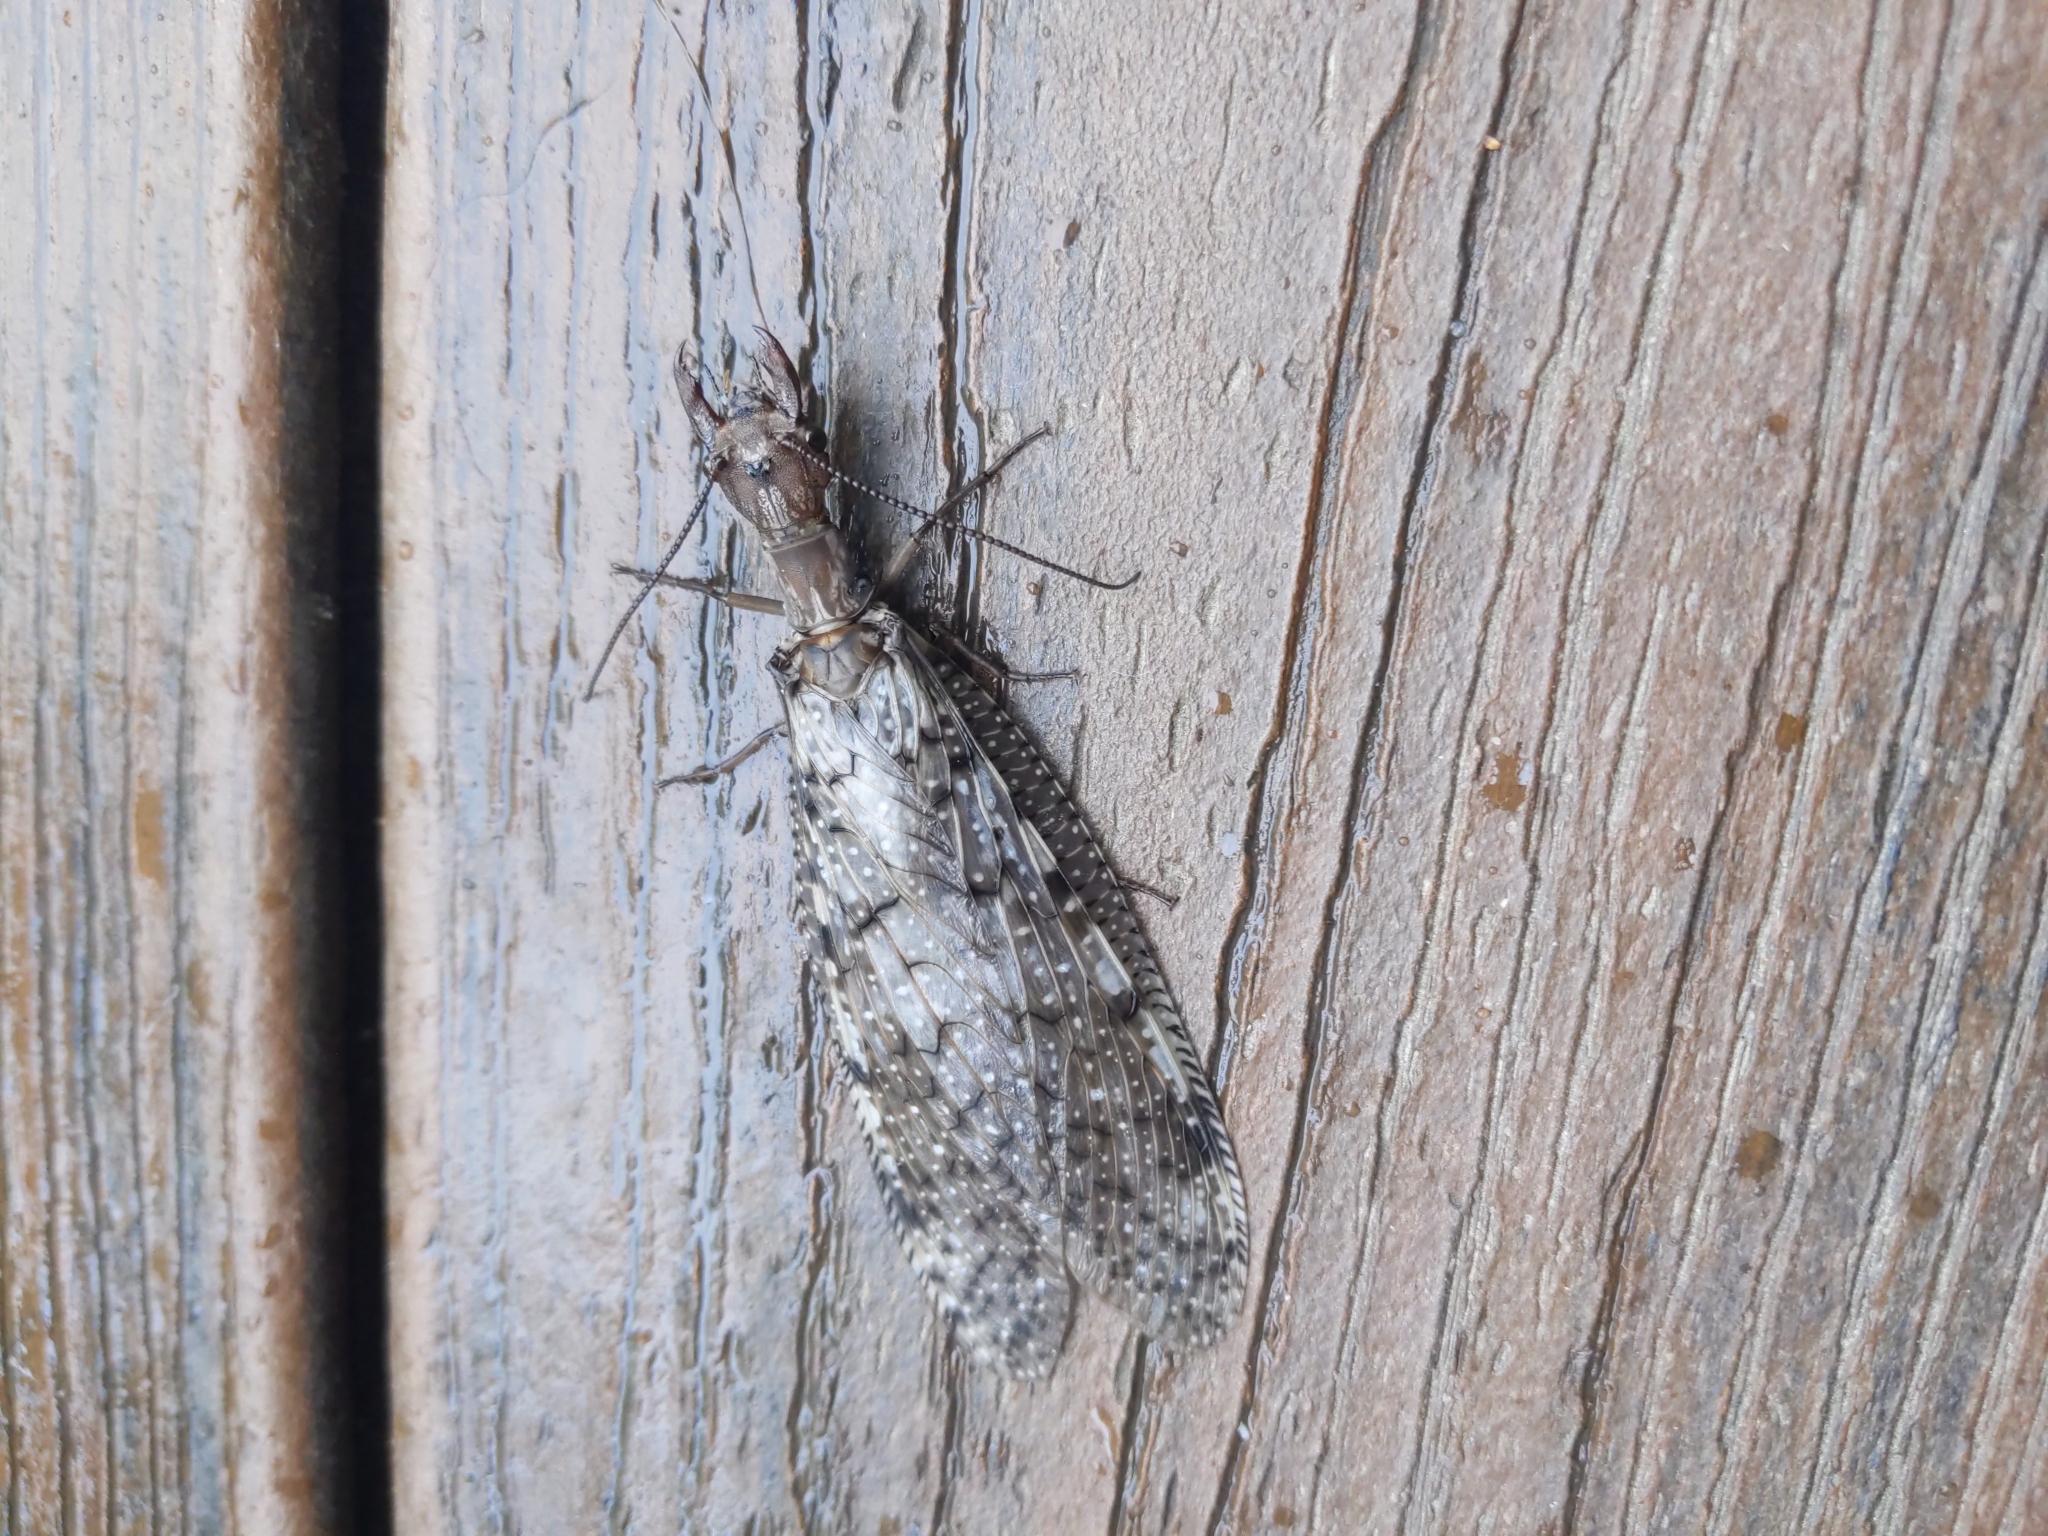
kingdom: Animalia
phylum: Arthropoda
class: Insecta
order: Megaloptera
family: Corydalidae
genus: Corydalus
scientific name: Corydalus cornutus
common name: Dobsonfly
